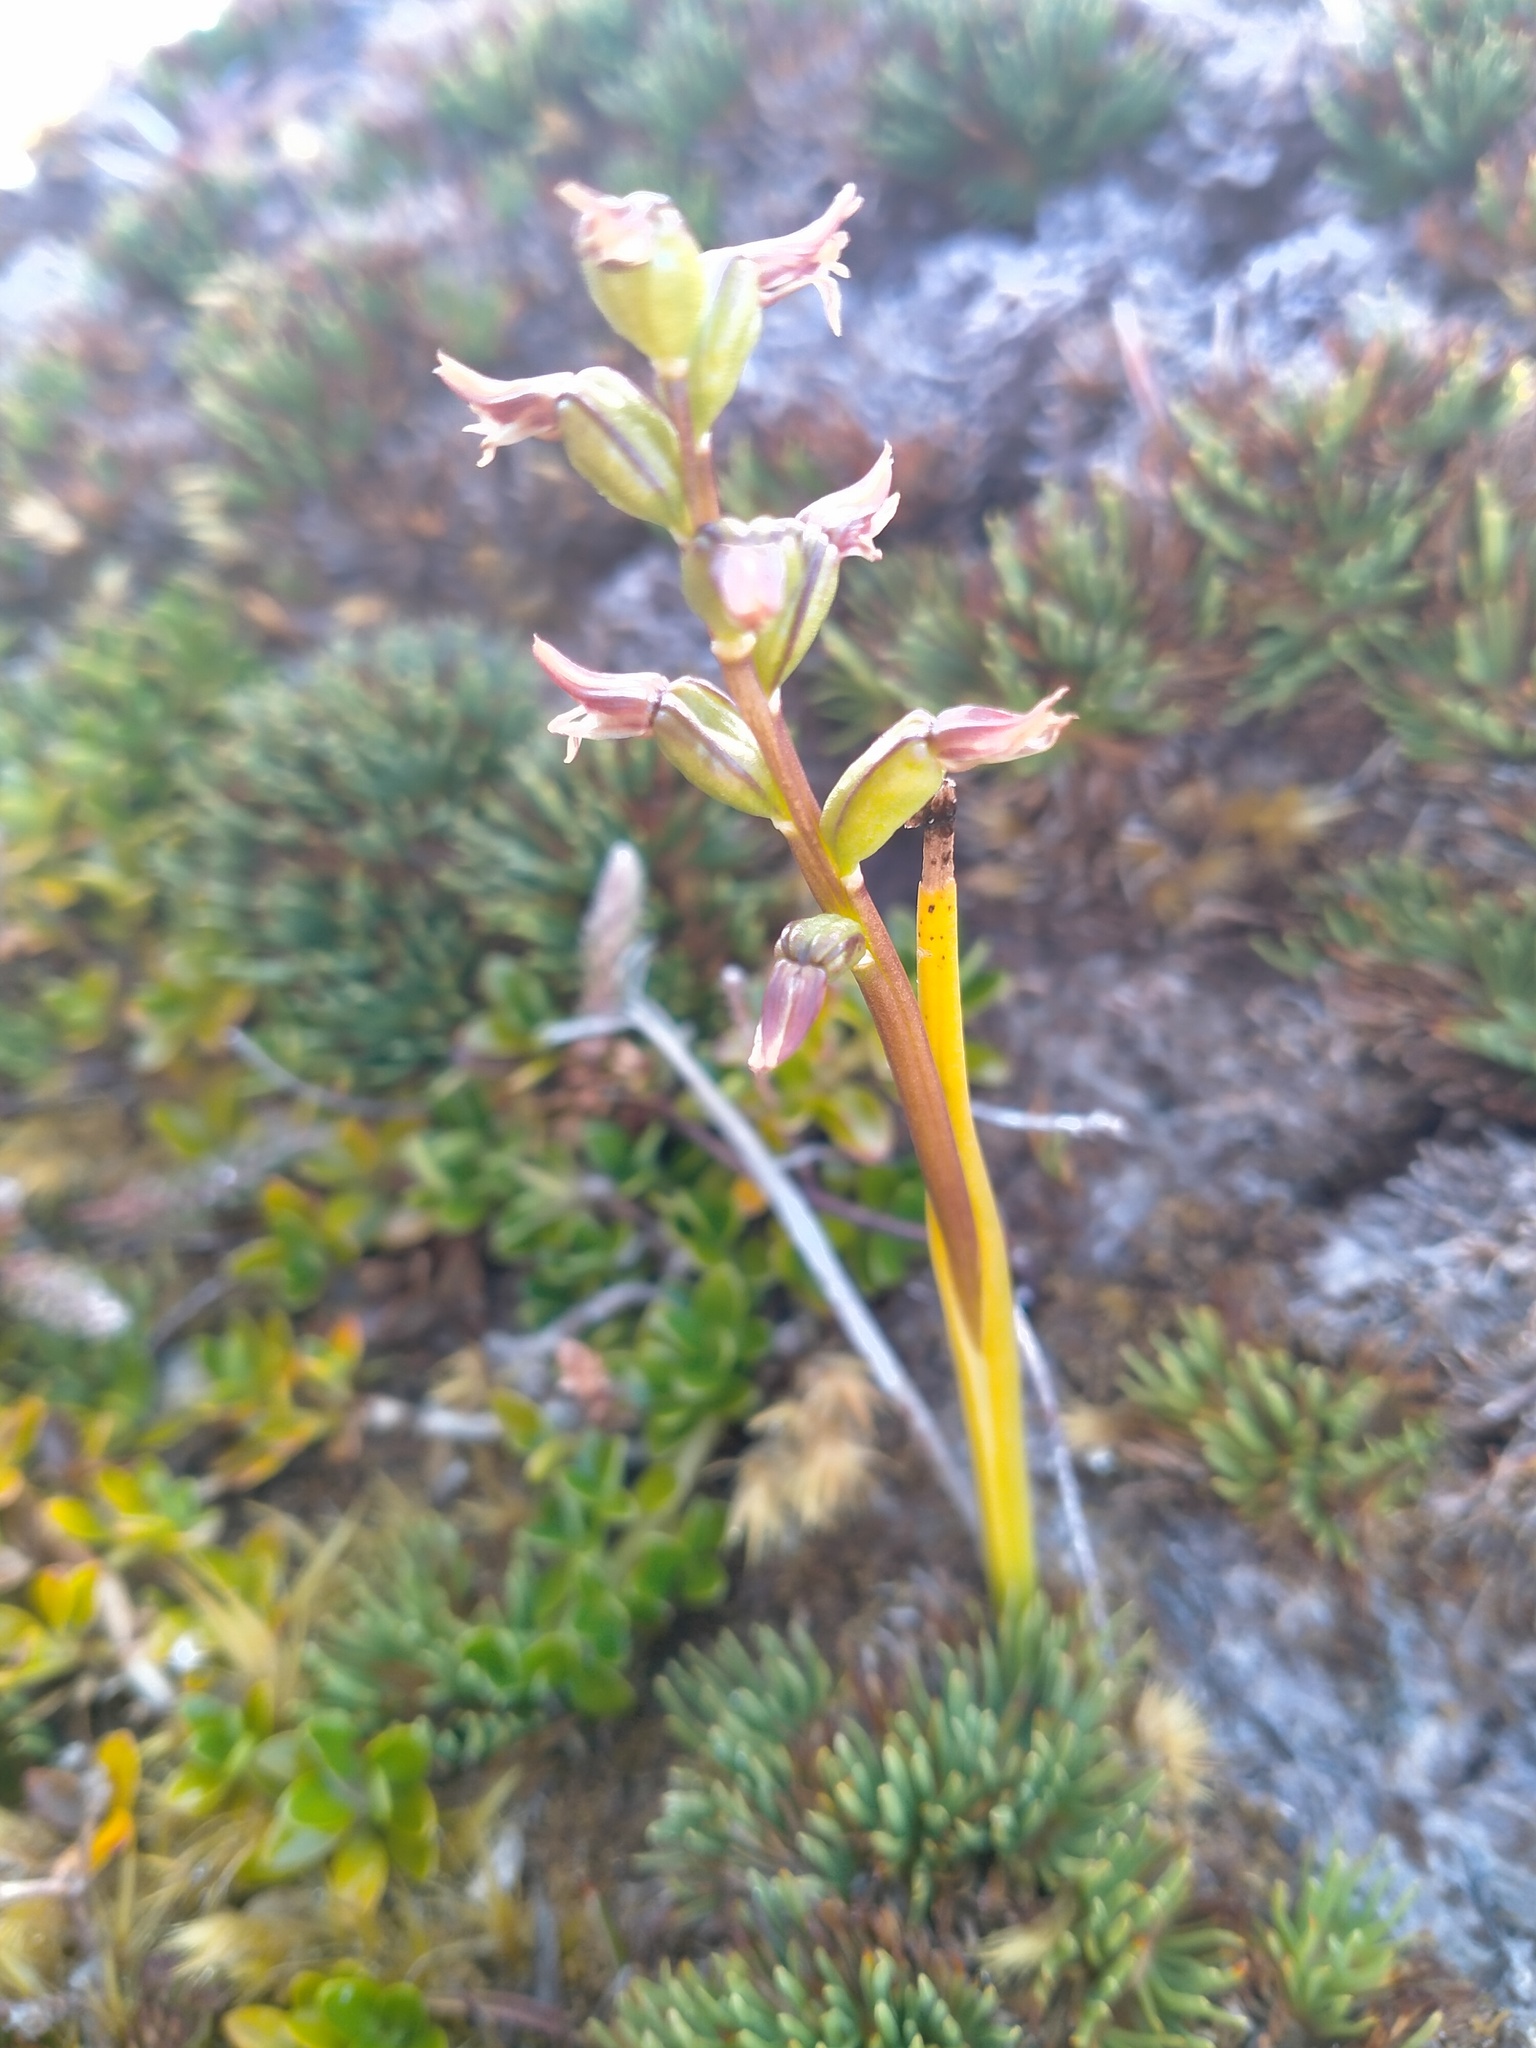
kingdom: Plantae
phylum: Tracheophyta
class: Liliopsida
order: Asparagales
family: Orchidaceae
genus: Prasophyllum
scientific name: Prasophyllum colensoi
